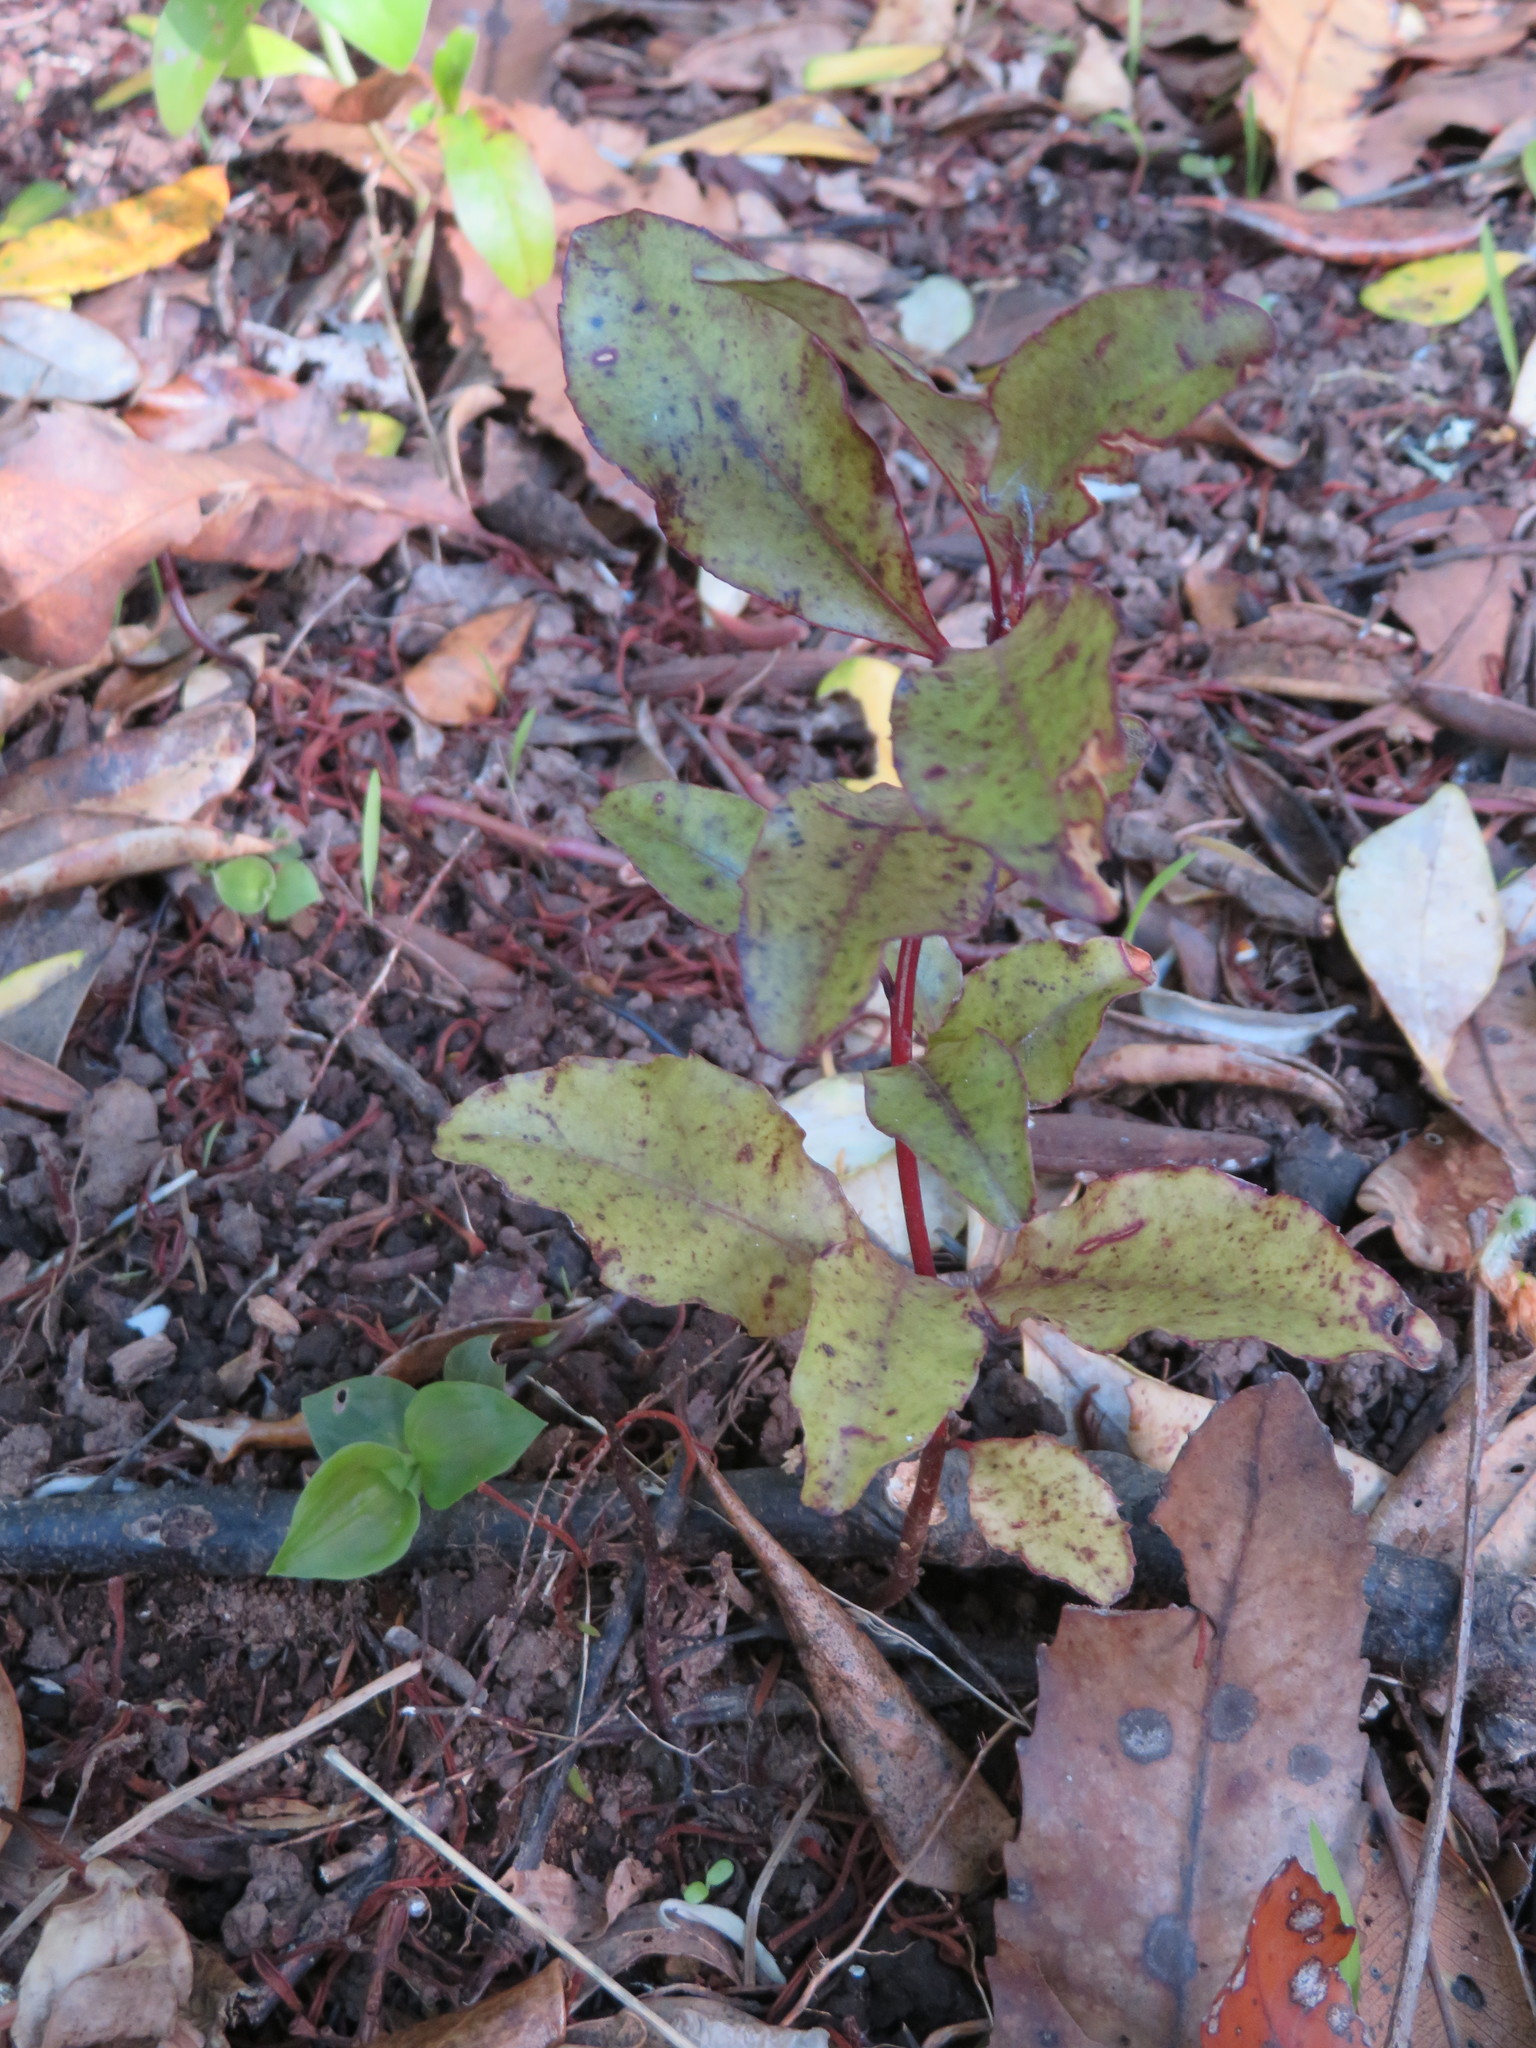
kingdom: Plantae
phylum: Tracheophyta
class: Magnoliopsida
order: Ericales
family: Primulaceae
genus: Myrsine
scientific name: Myrsine australis
